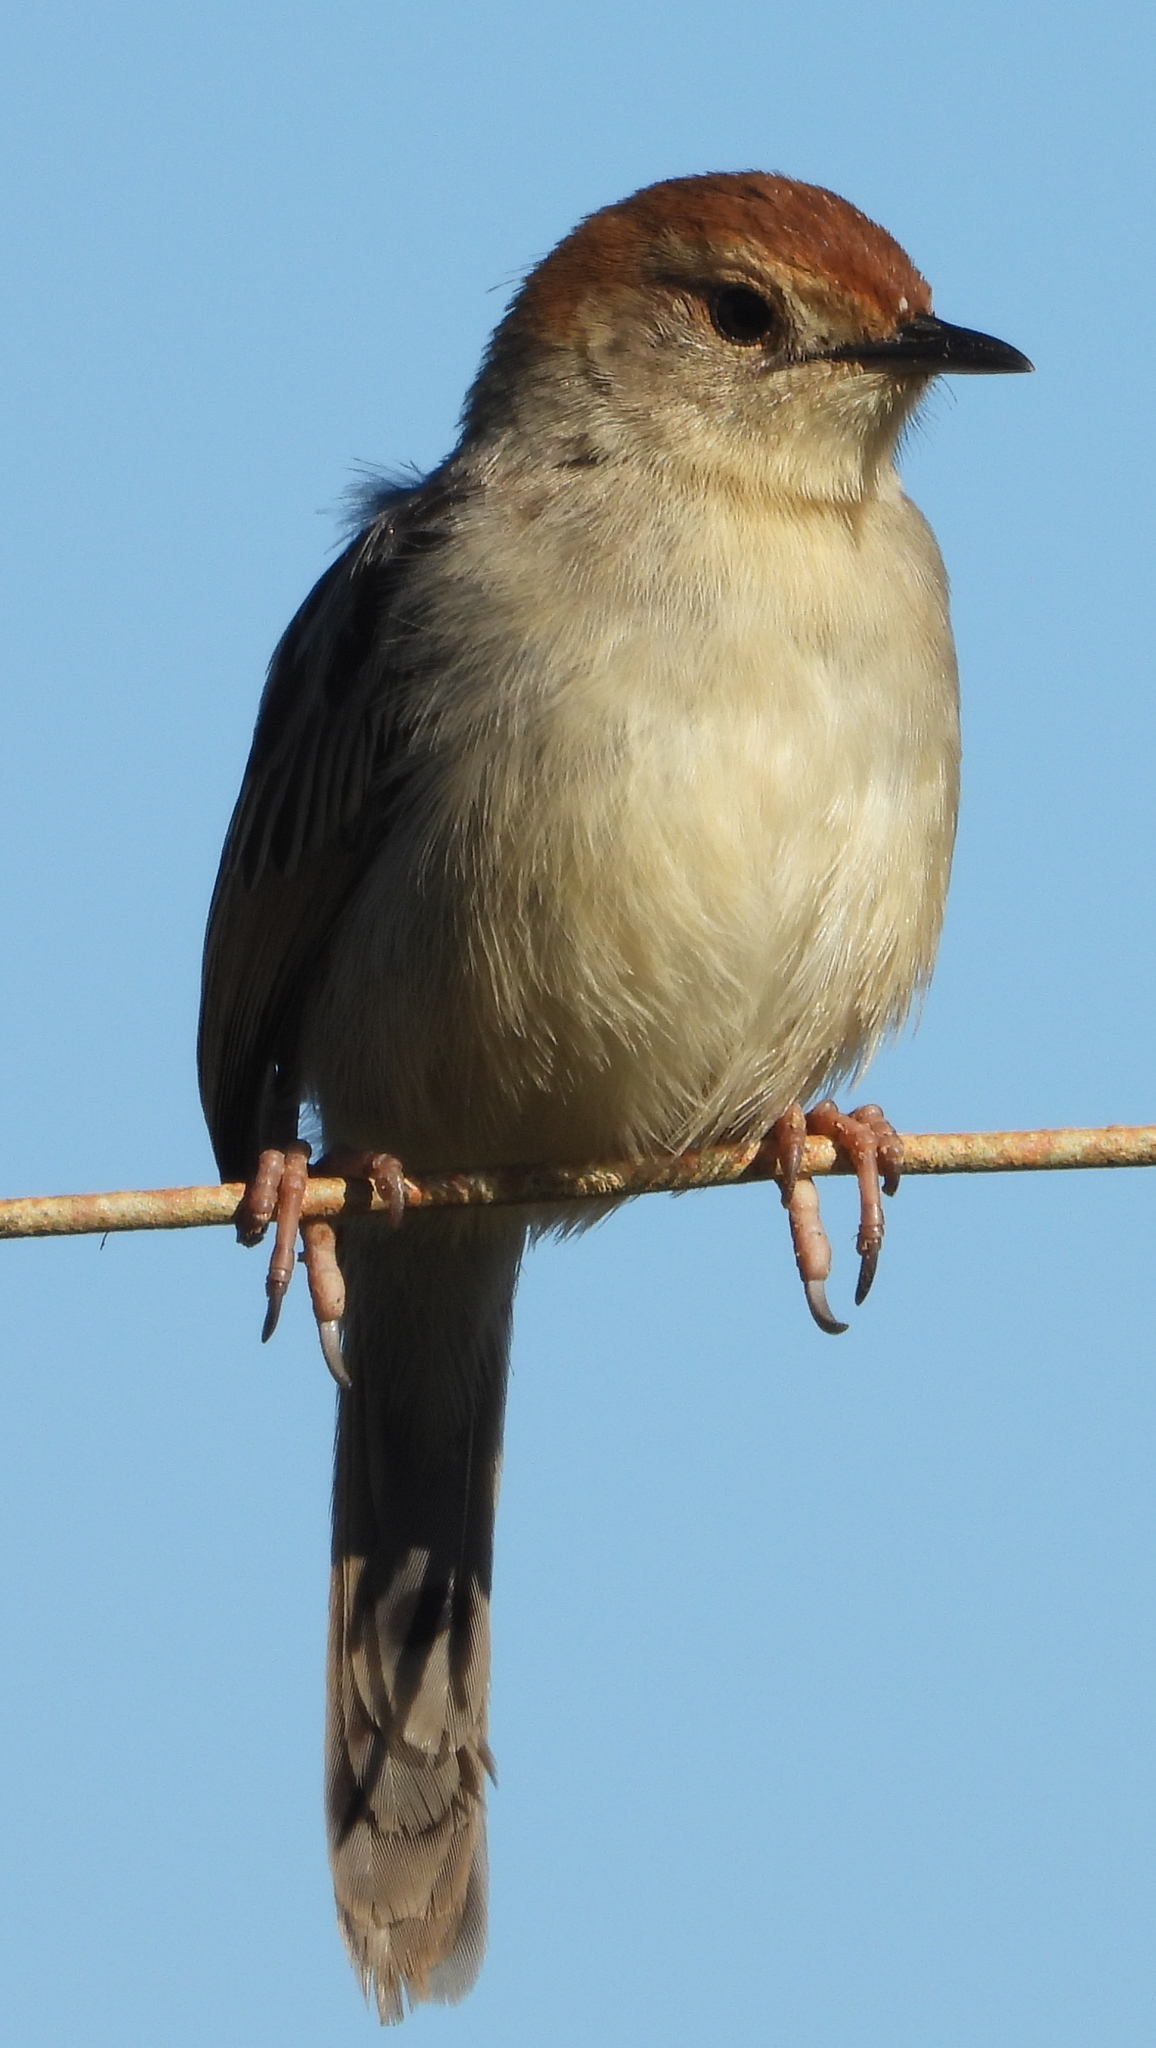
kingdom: Animalia
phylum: Chordata
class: Aves
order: Passeriformes
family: Cisticolidae
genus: Cisticola
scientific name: Cisticola tinniens
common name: Levaillant's cisticola
